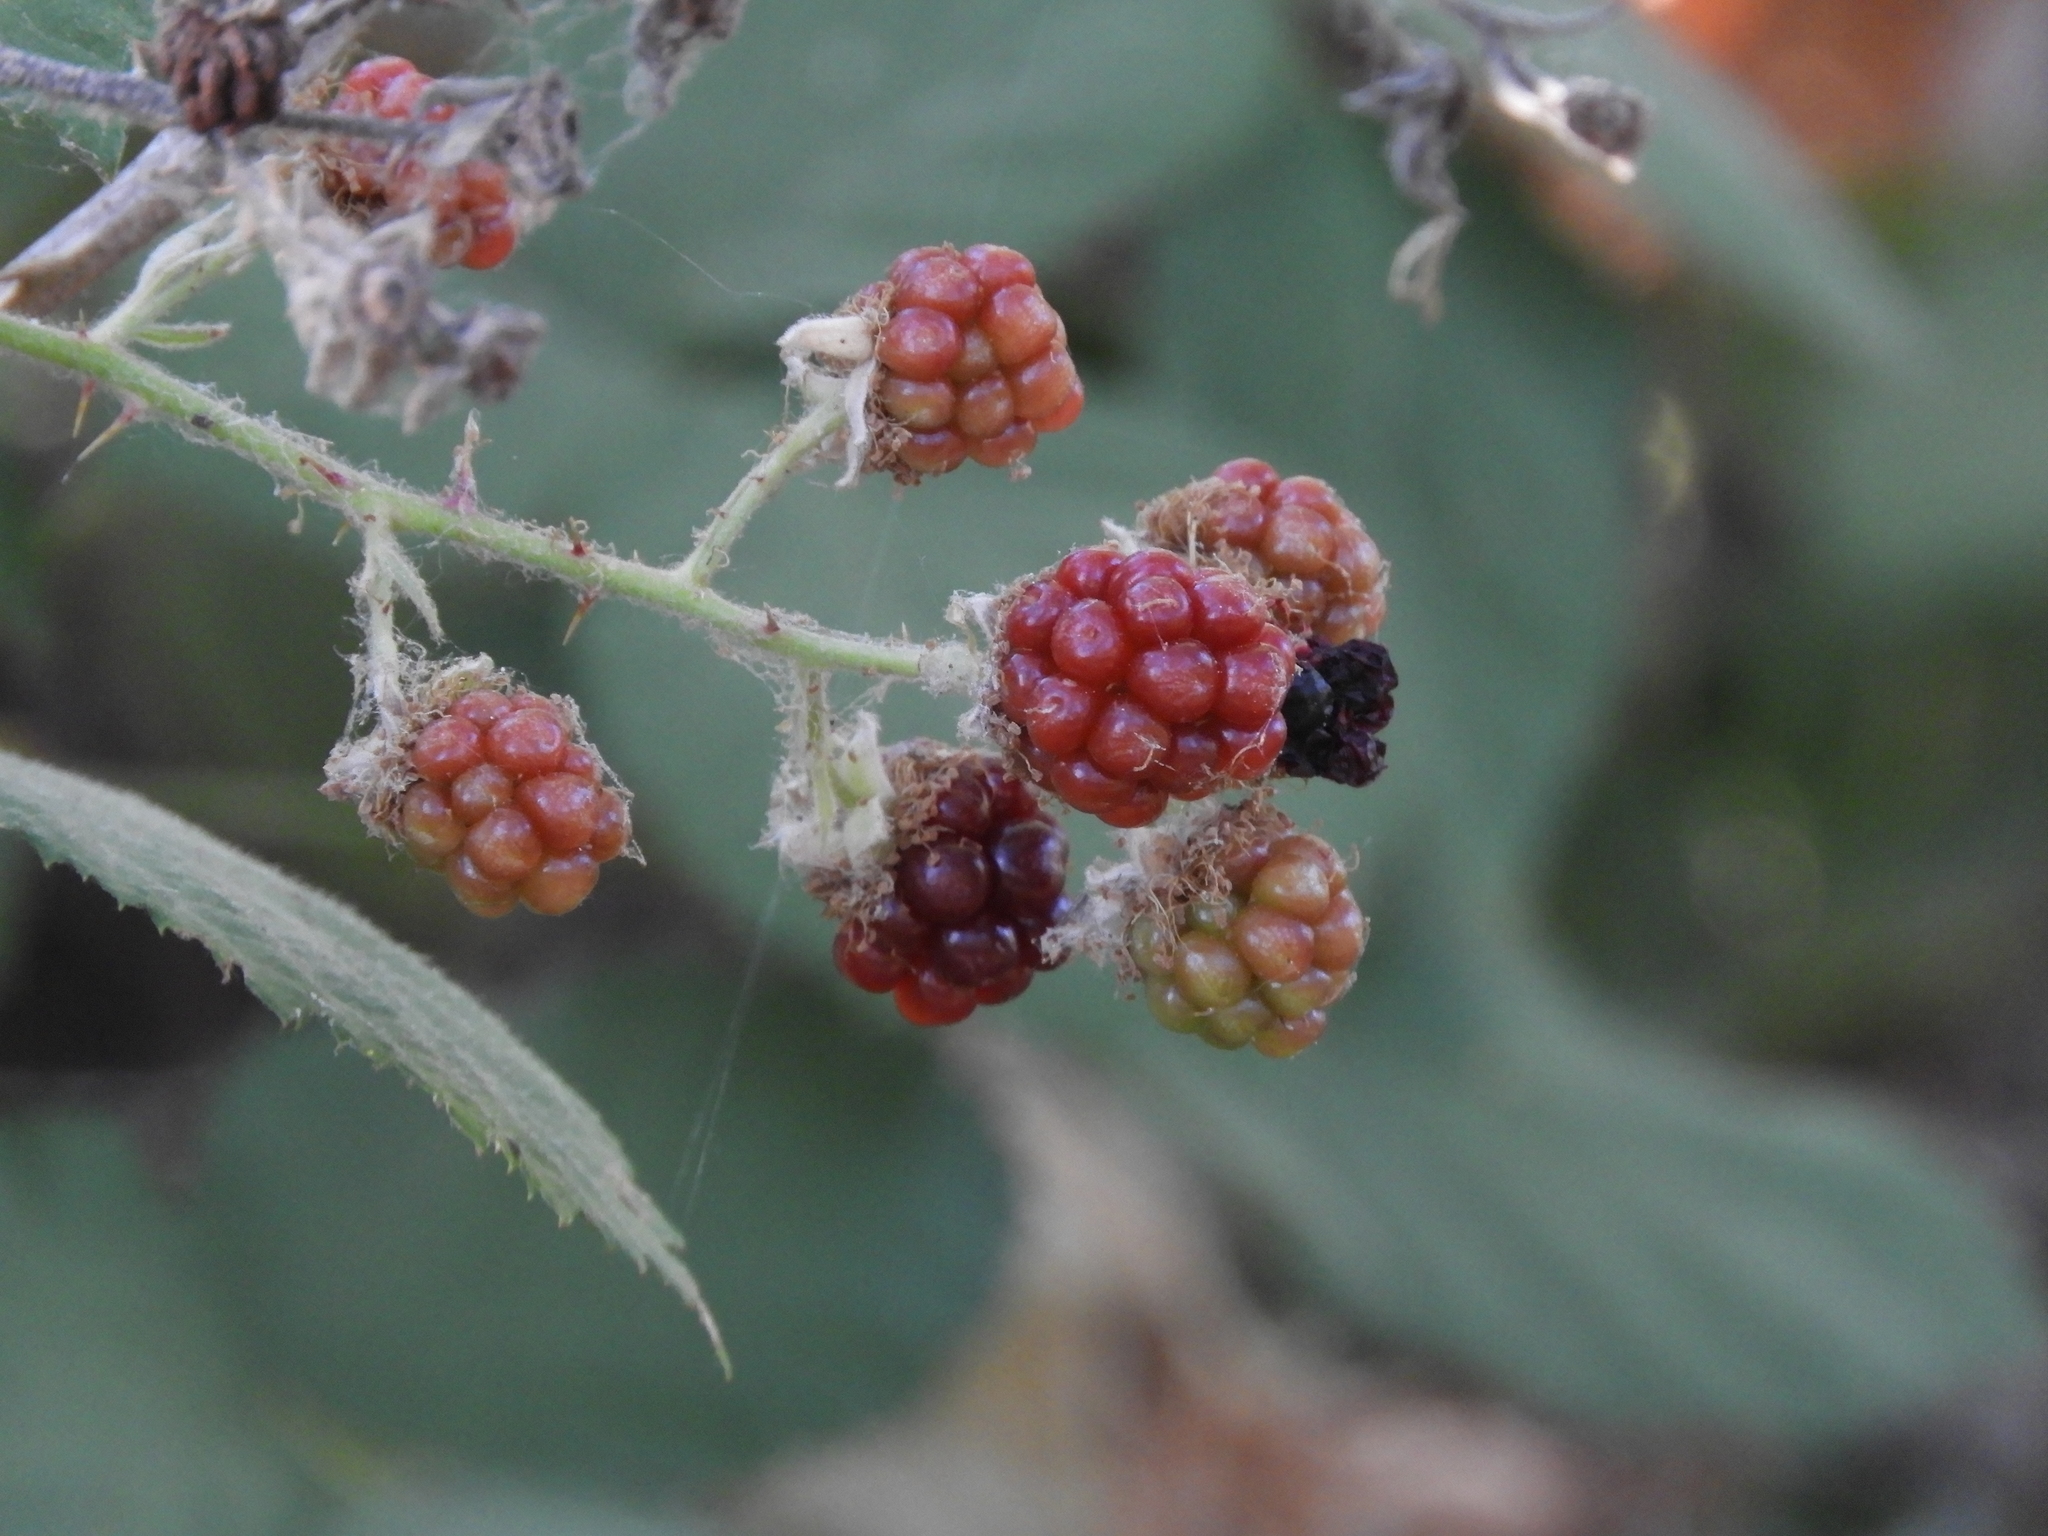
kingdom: Plantae
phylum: Tracheophyta
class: Magnoliopsida
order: Rosales
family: Rosaceae
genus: Rubus
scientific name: Rubus armeniacus
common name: Himalayan blackberry
